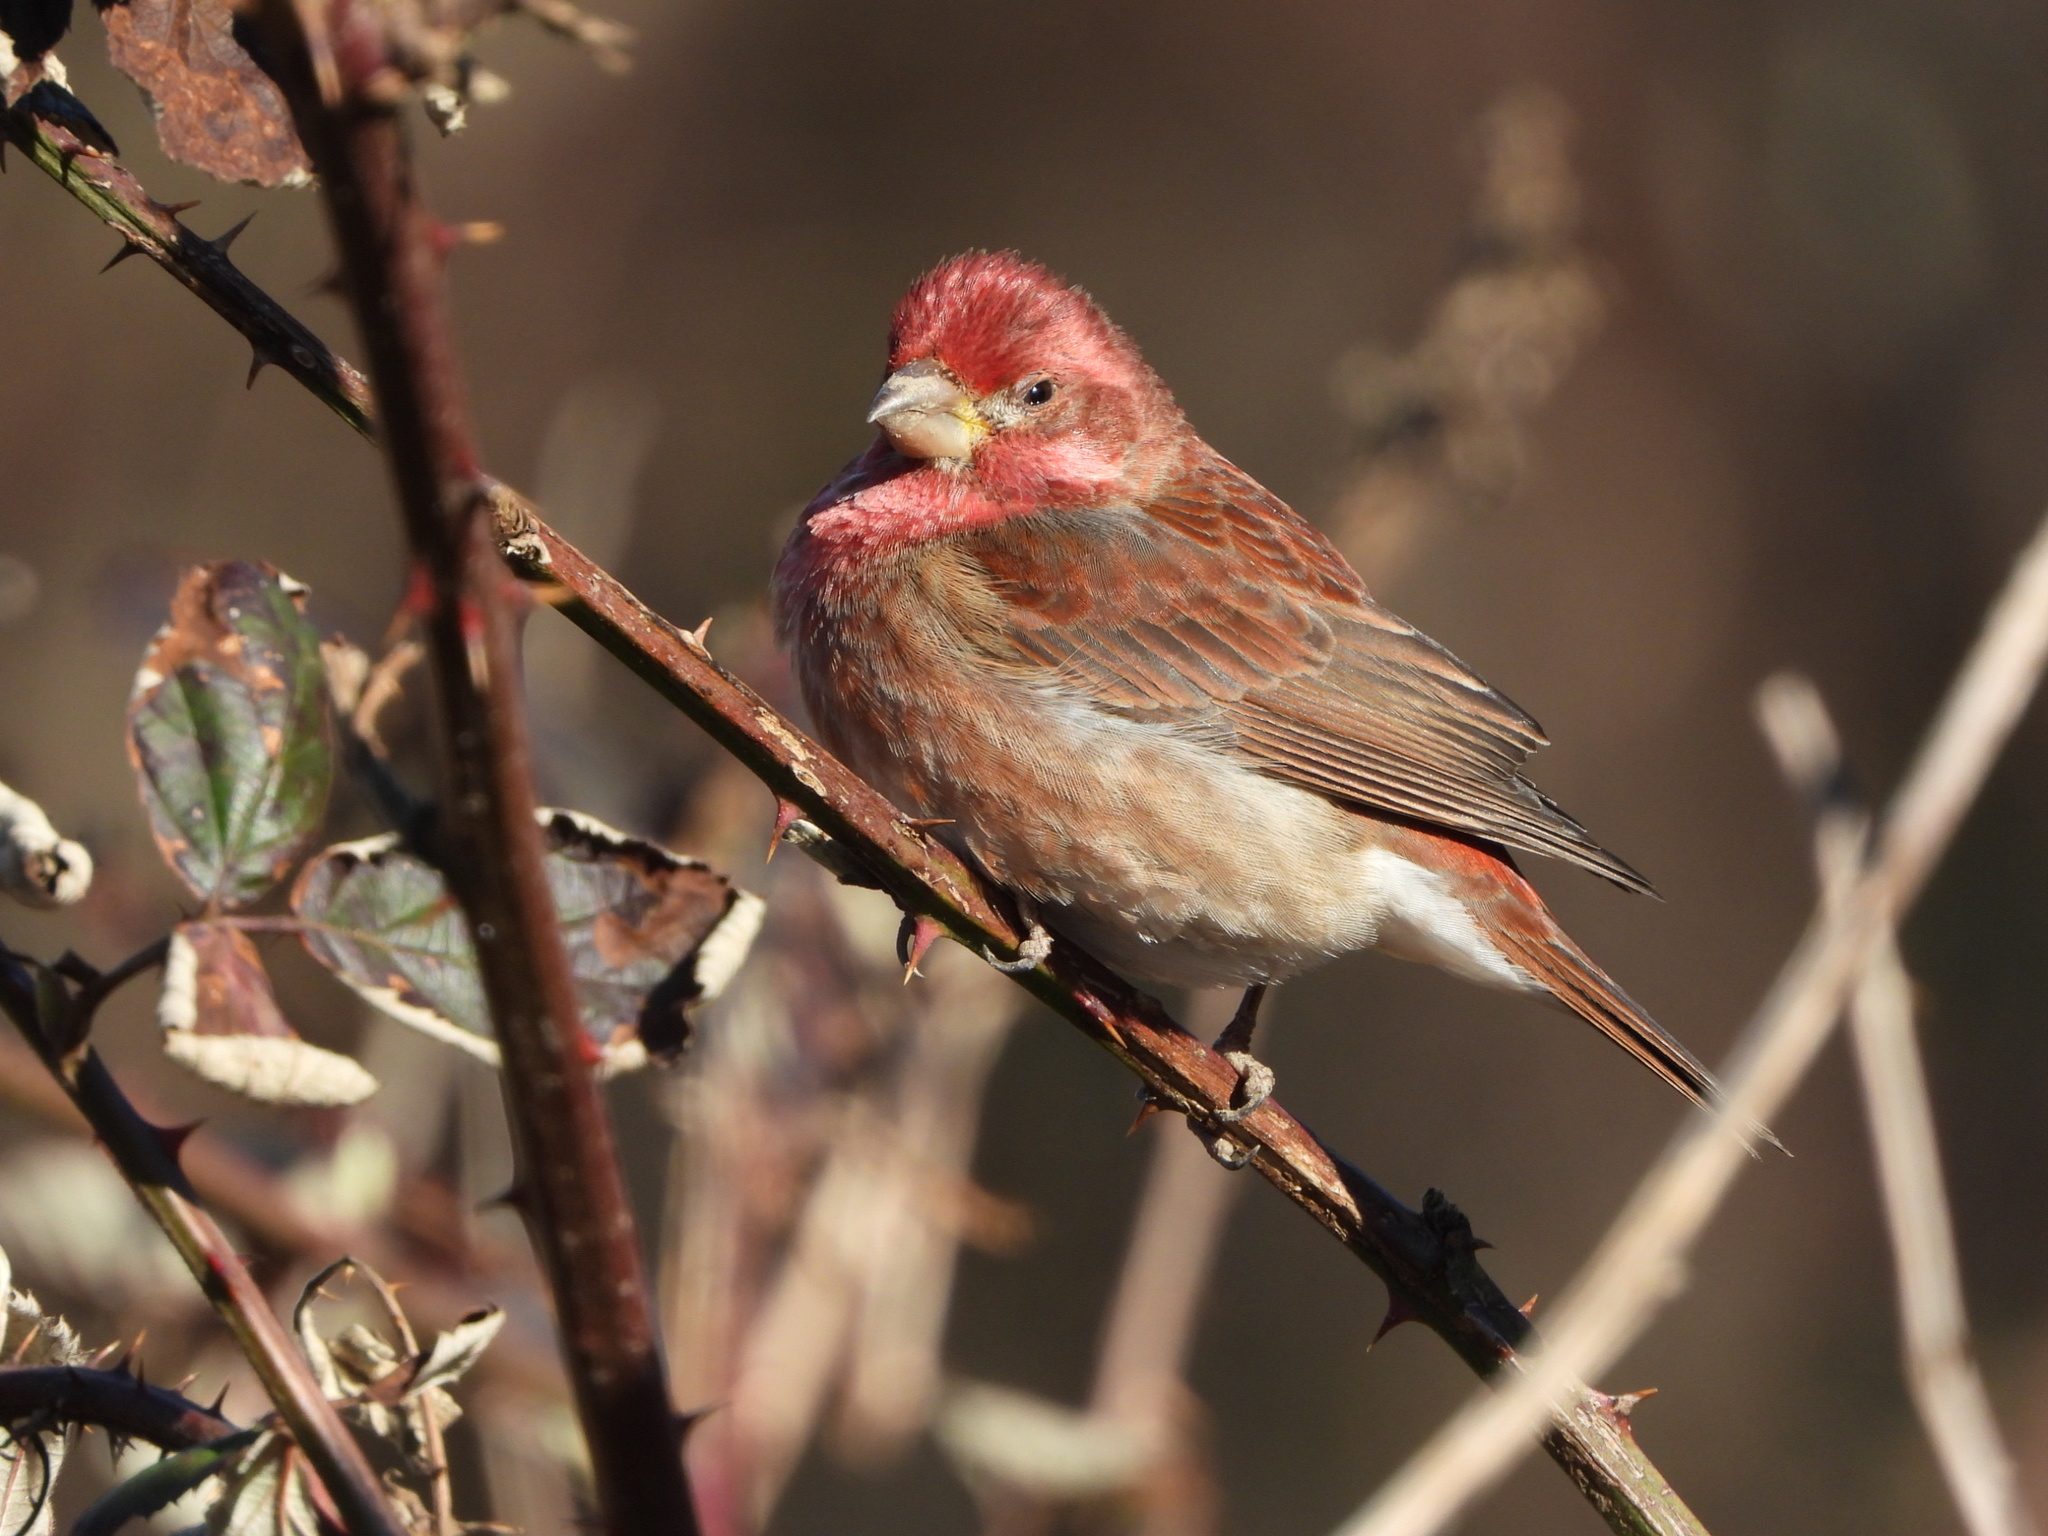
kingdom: Animalia
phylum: Chordata
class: Aves
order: Passeriformes
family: Fringillidae
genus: Haemorhous
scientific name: Haemorhous purpureus
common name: Purple finch
